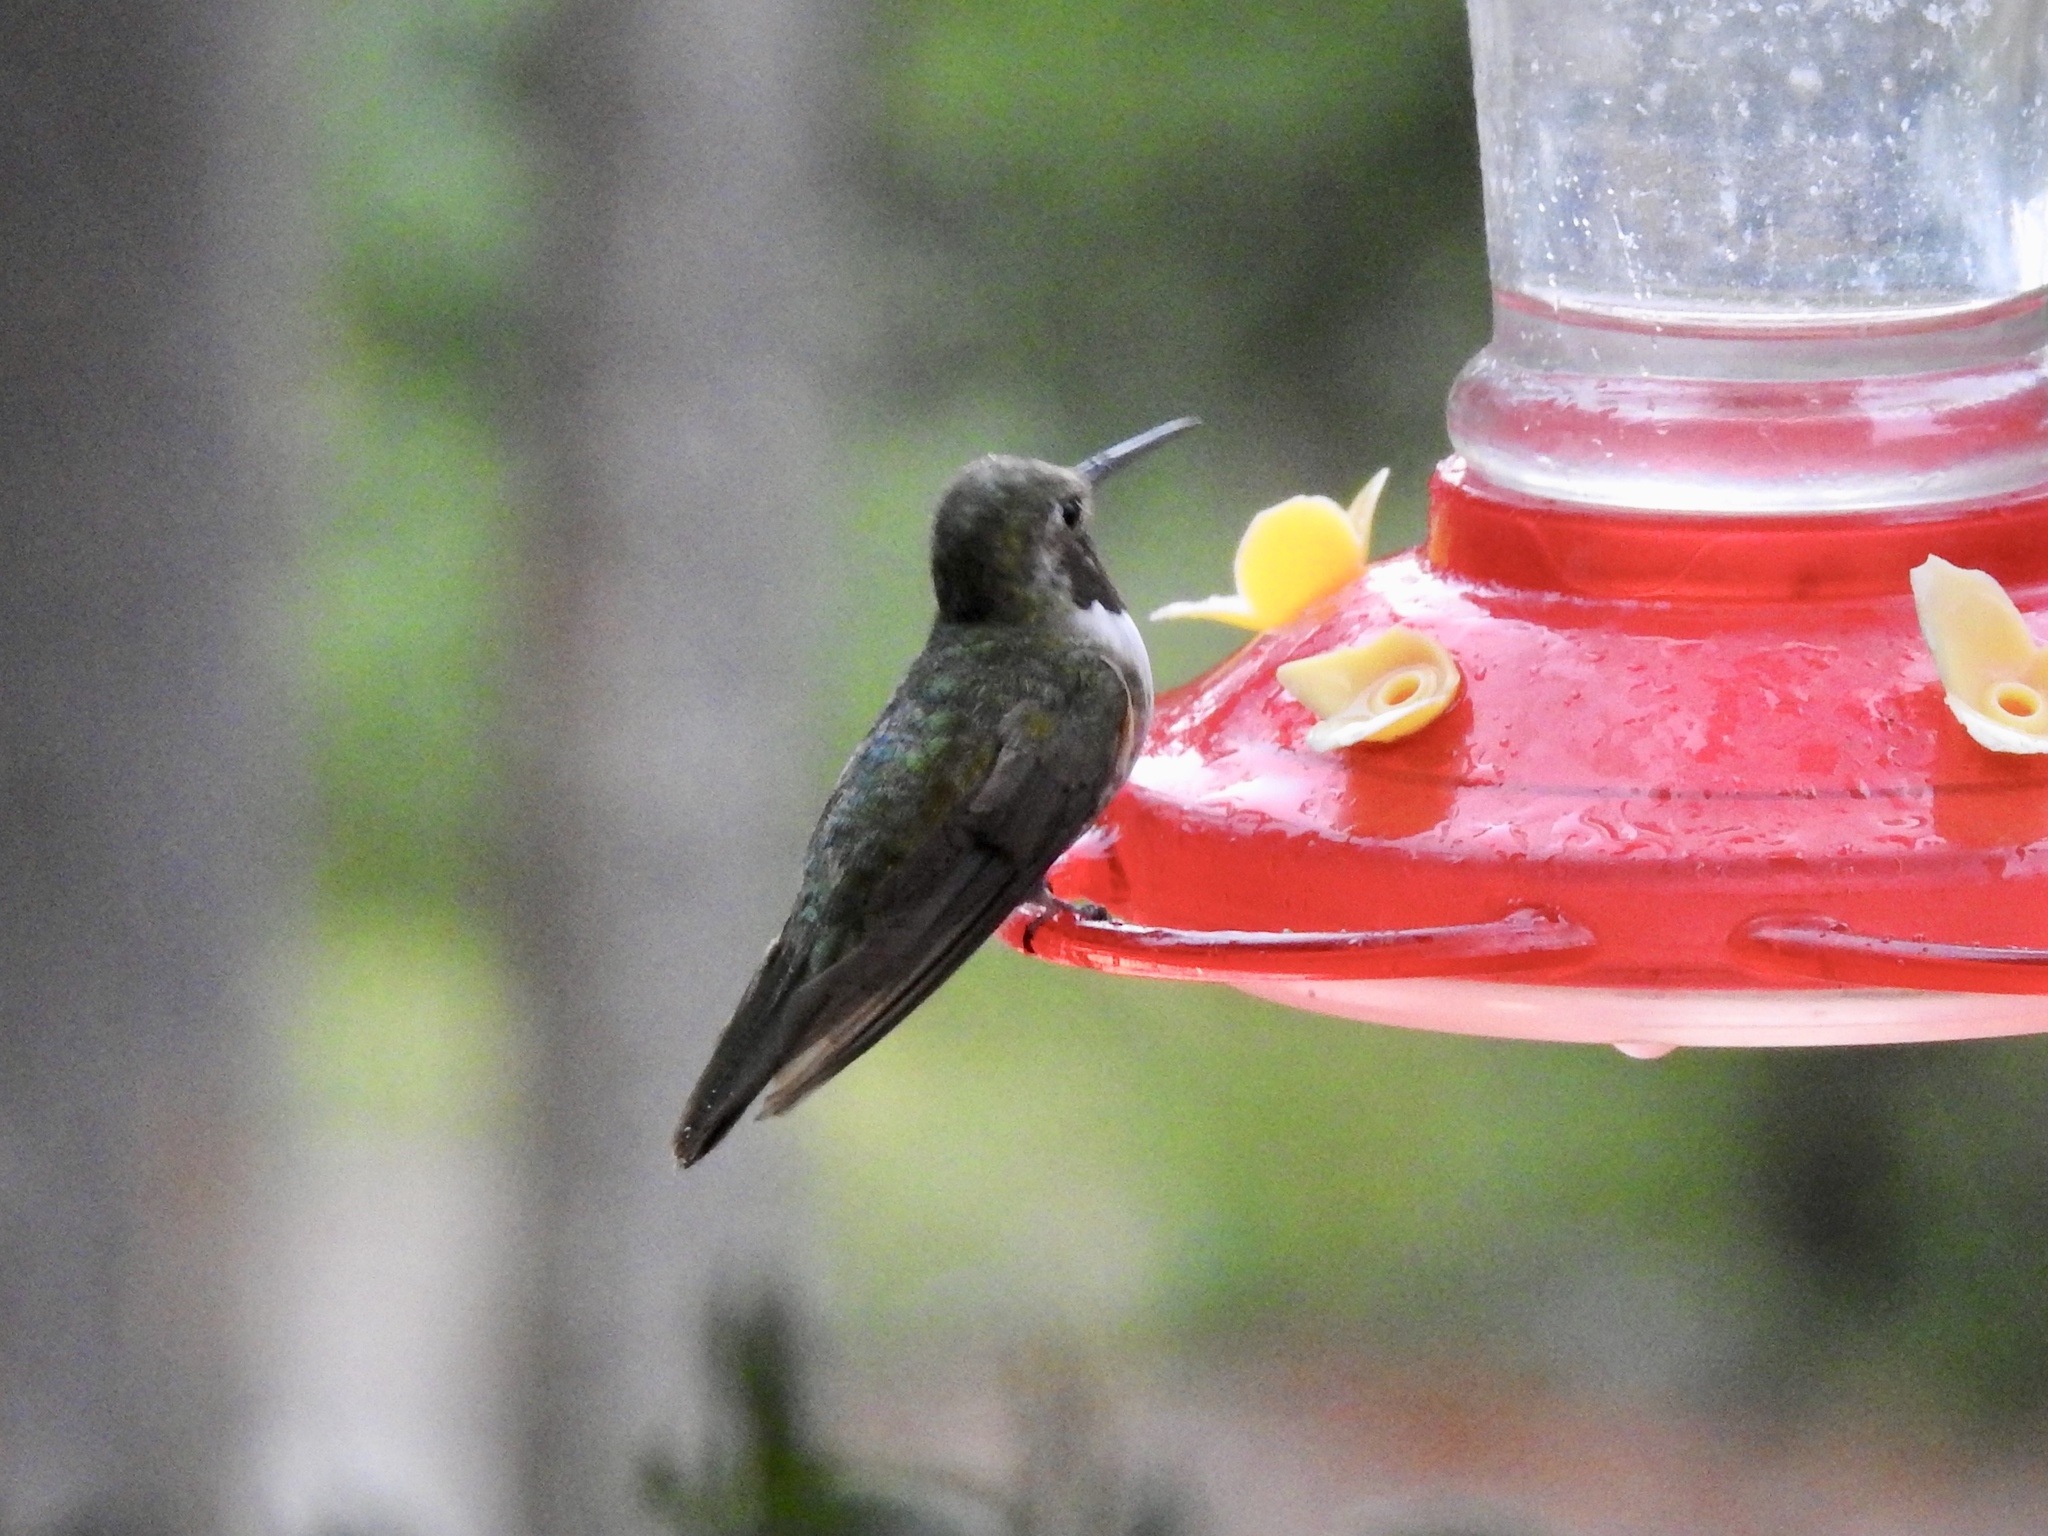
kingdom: Animalia
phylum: Chordata
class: Aves
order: Apodiformes
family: Trochilidae
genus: Selasphorus
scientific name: Selasphorus platycercus
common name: Broad-tailed hummingbird
